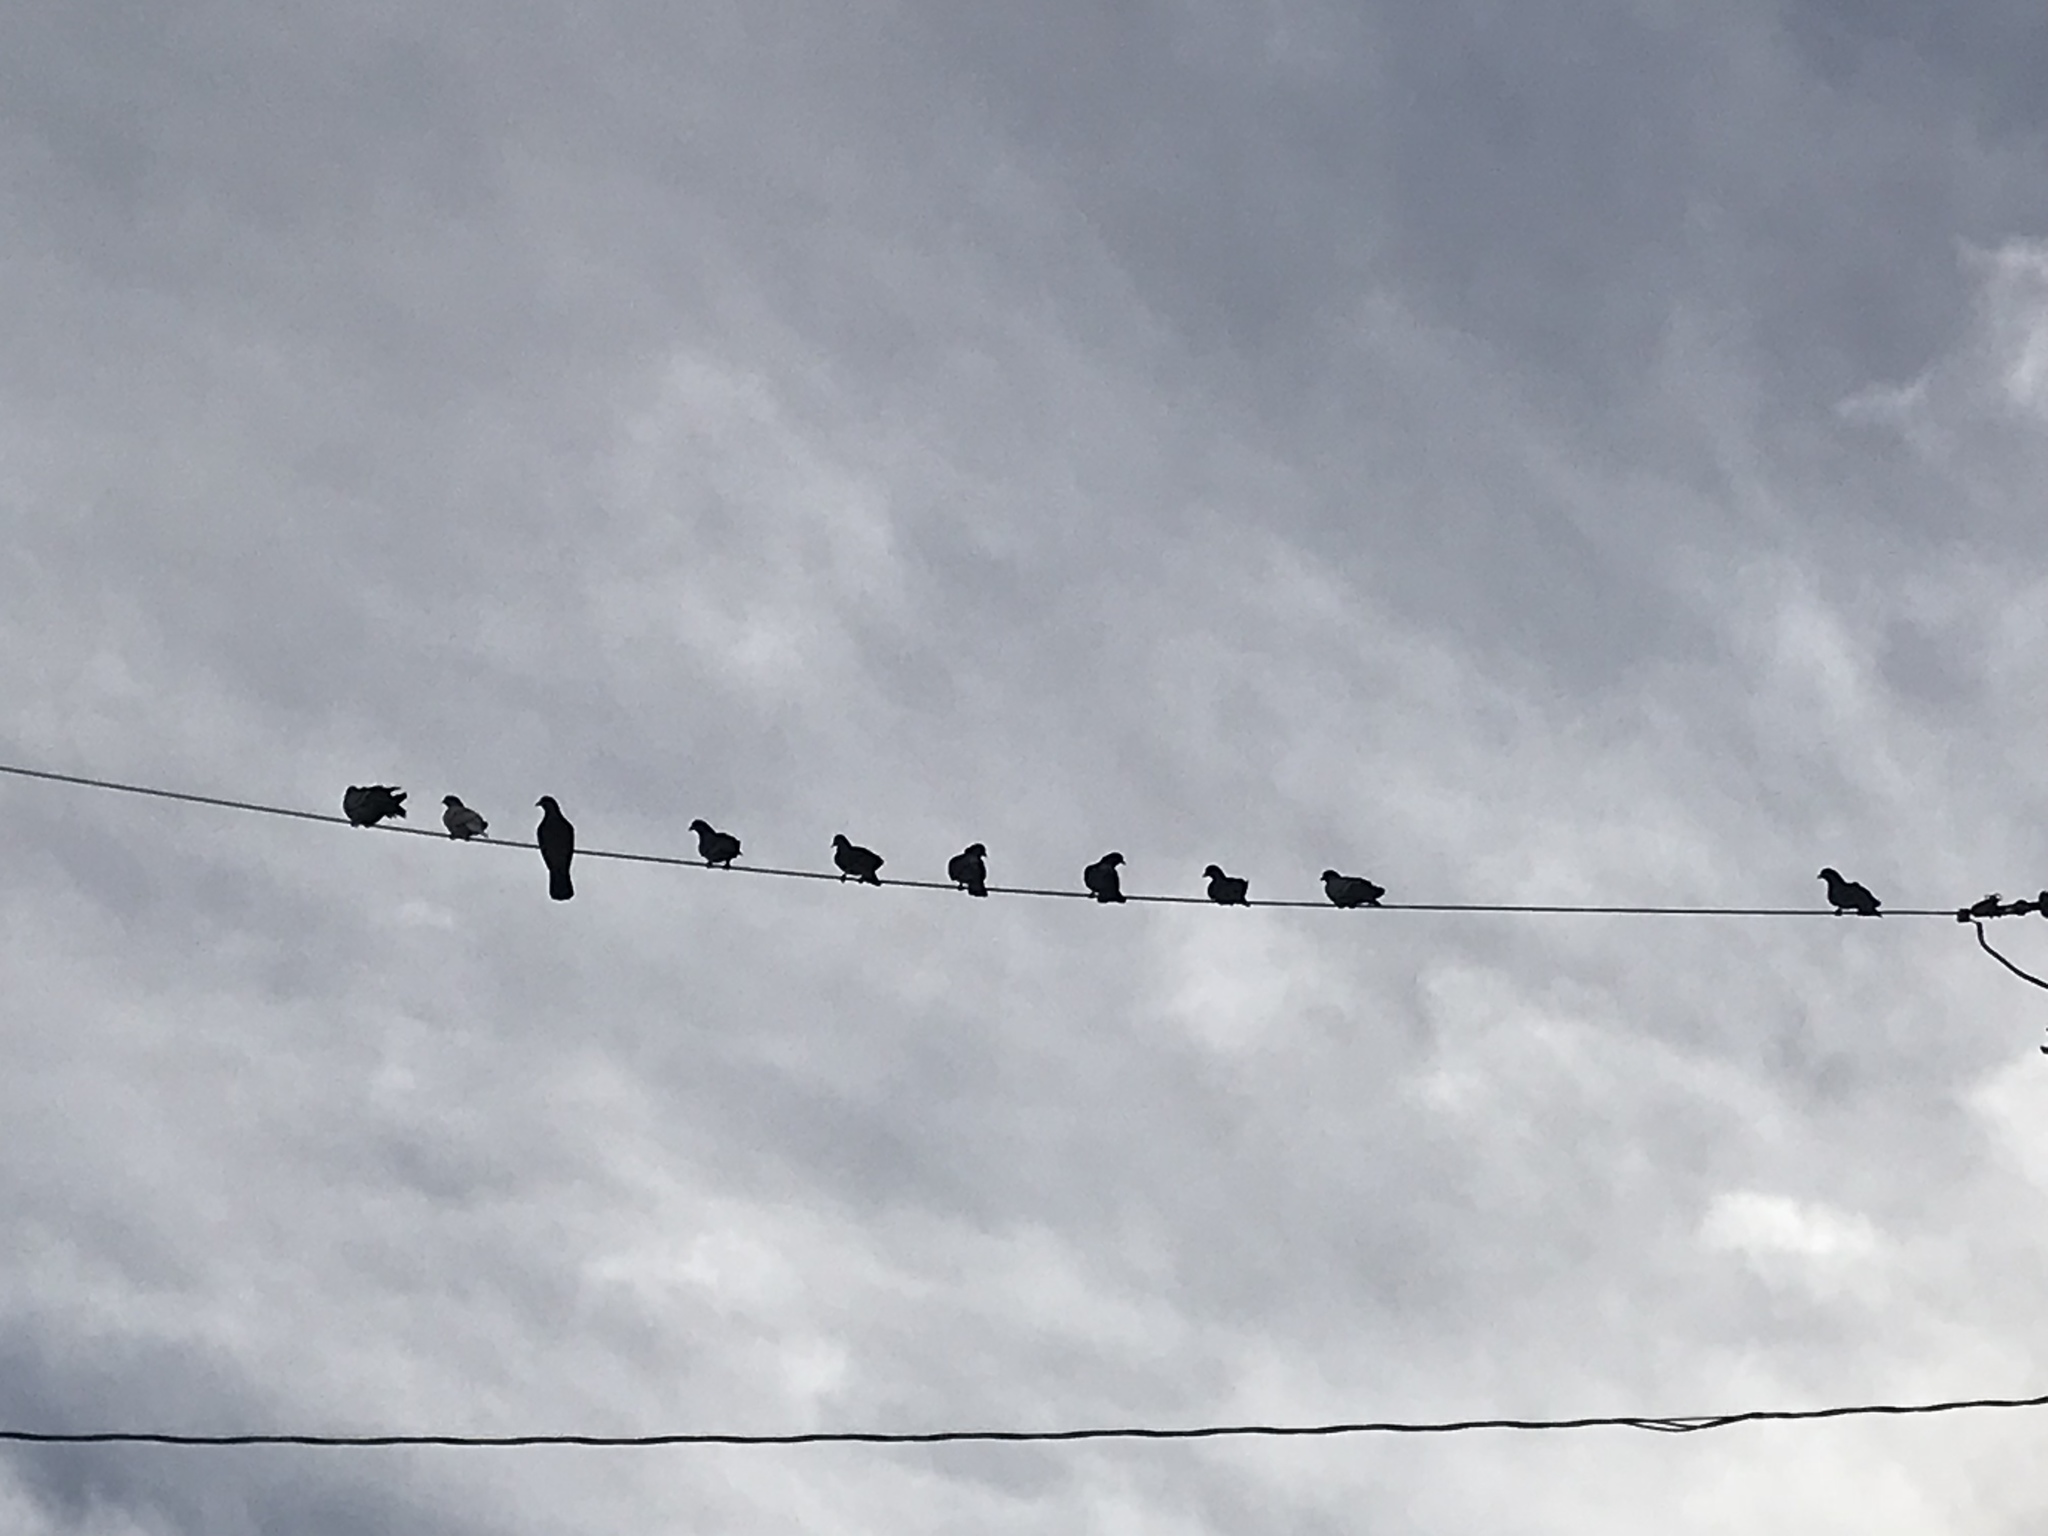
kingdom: Animalia
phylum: Chordata
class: Aves
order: Columbiformes
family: Columbidae
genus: Columba
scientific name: Columba livia
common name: Rock pigeon
